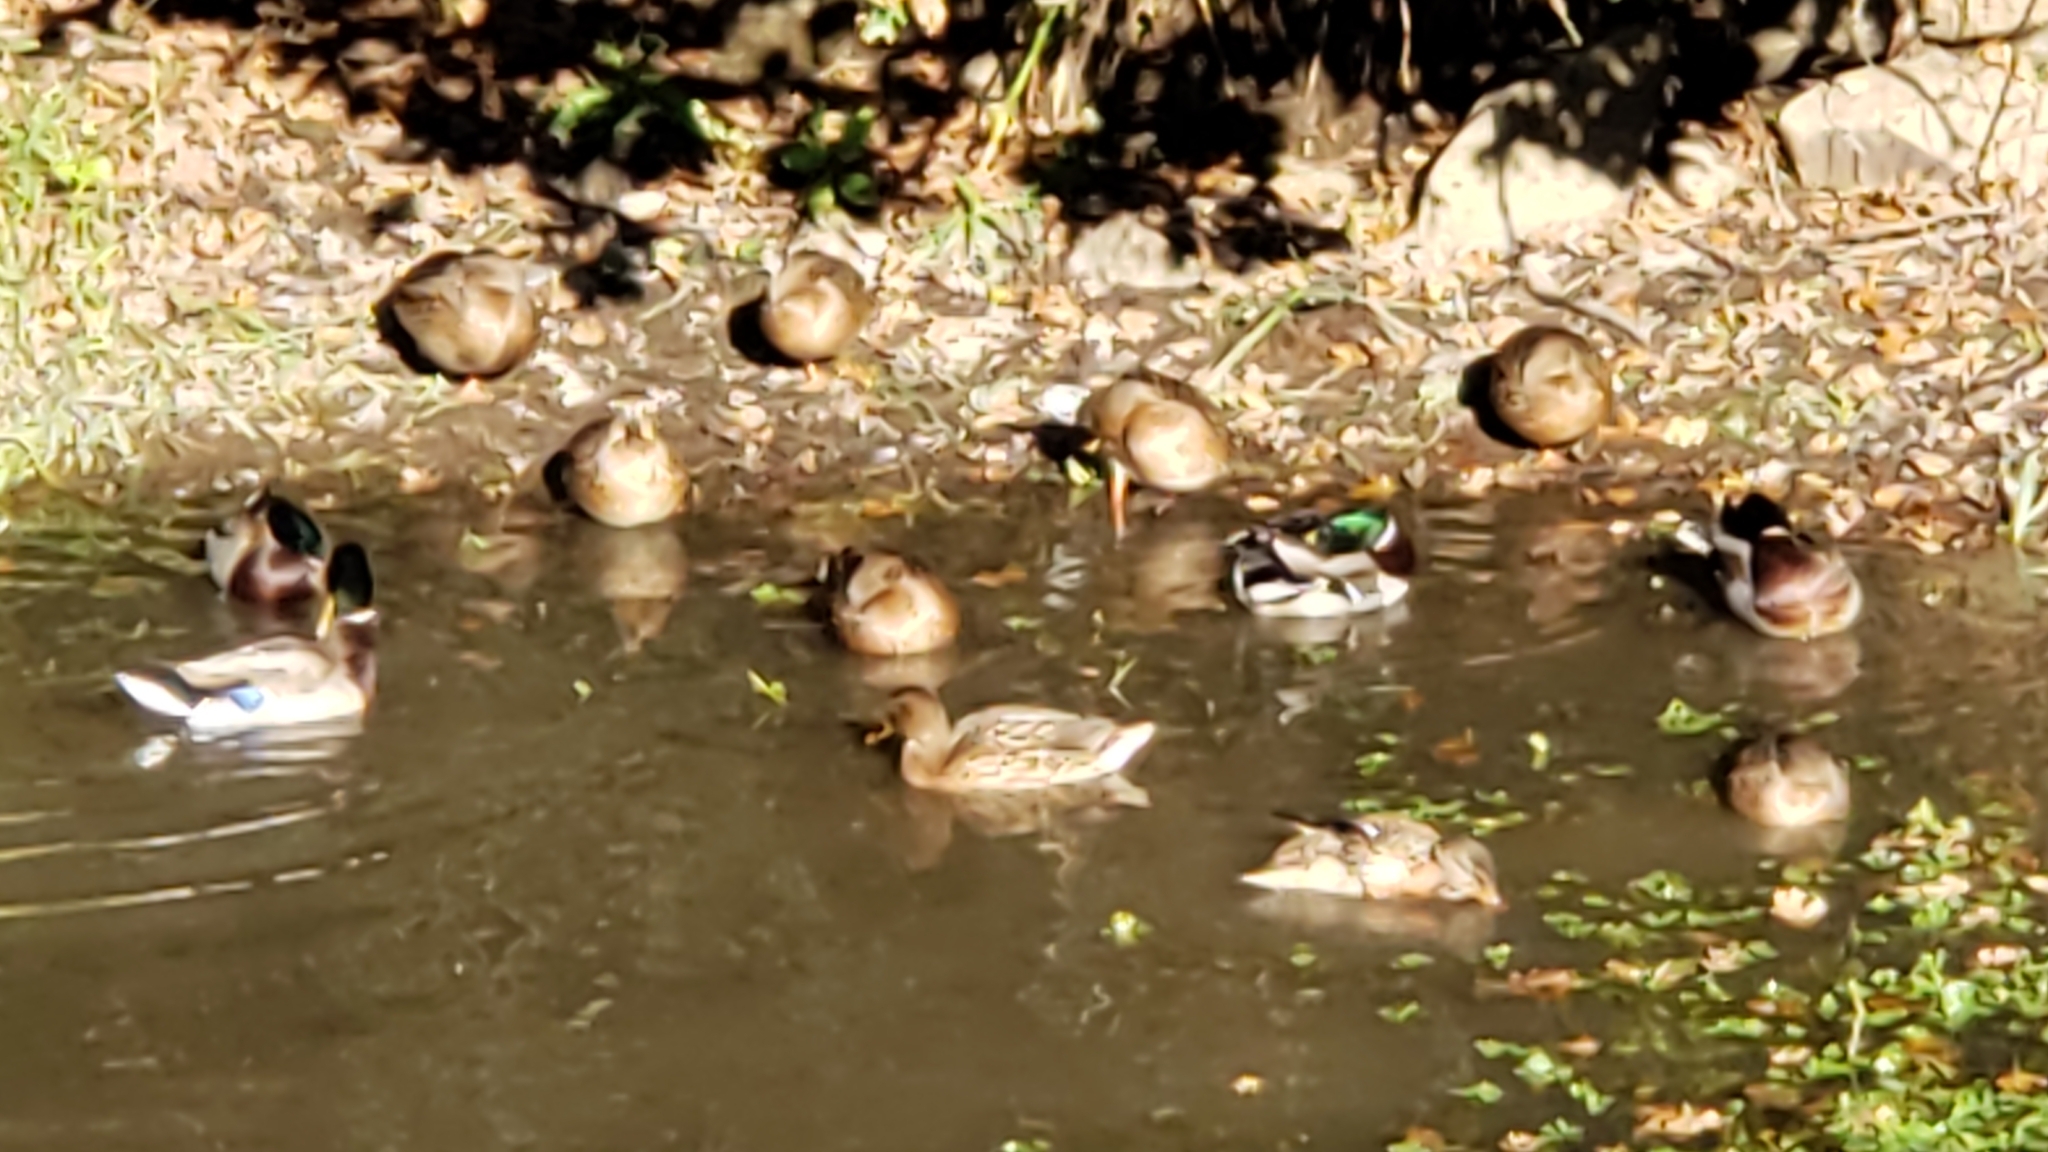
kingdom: Animalia
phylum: Chordata
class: Aves
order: Anseriformes
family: Anatidae
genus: Anas
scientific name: Anas platyrhynchos
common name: Mallard
